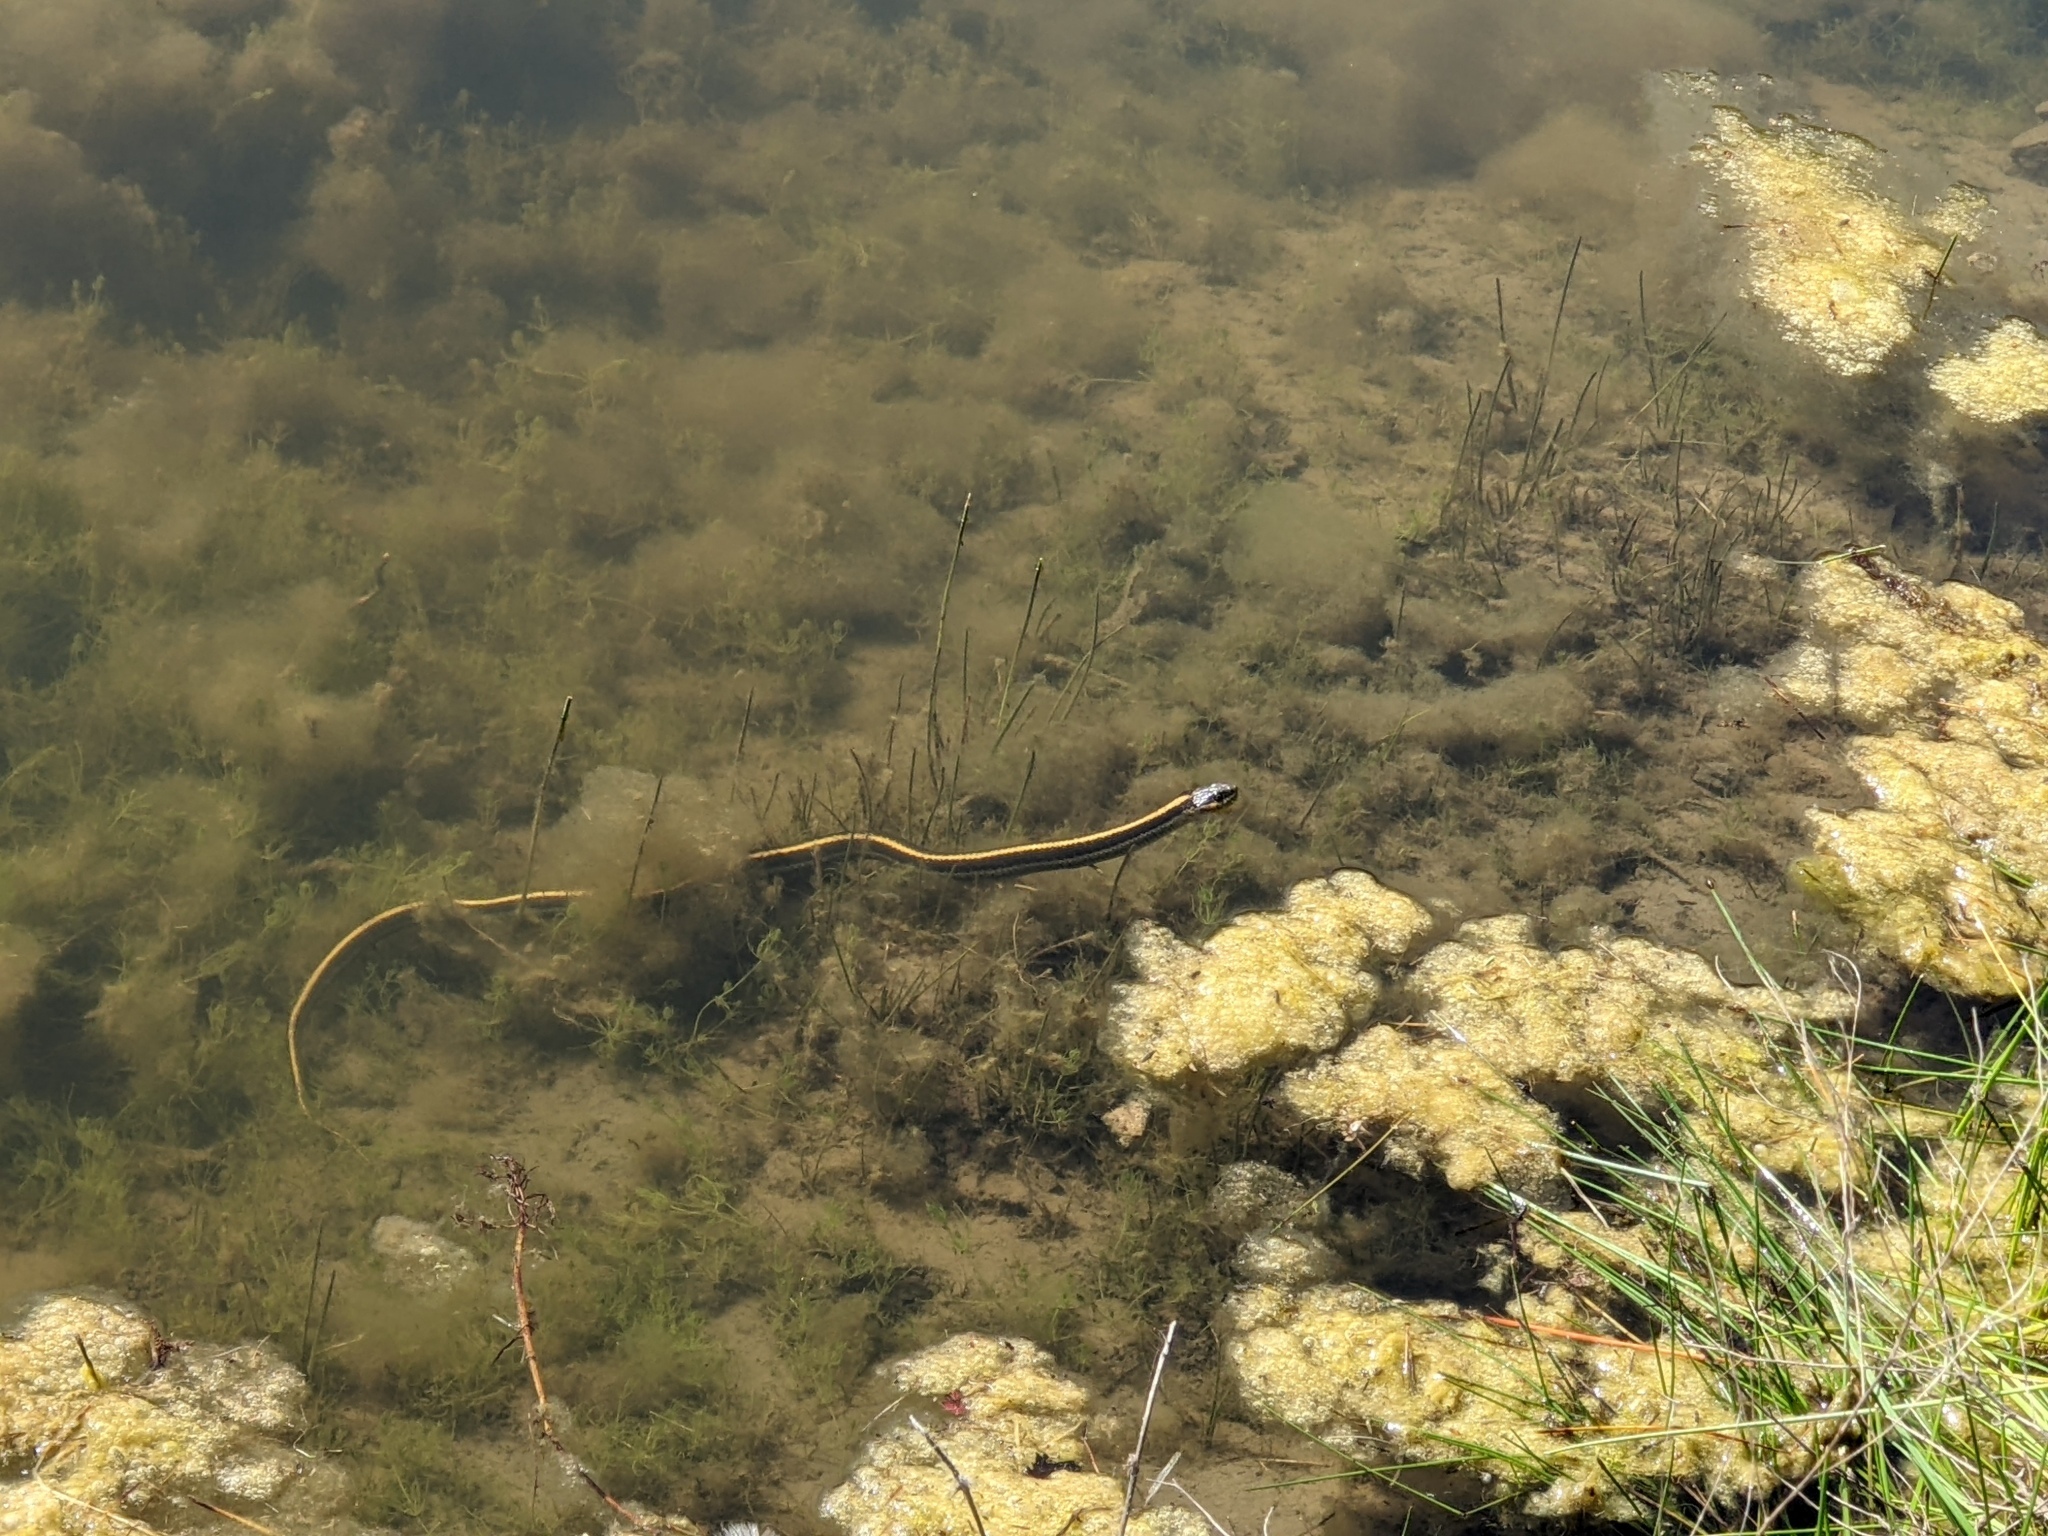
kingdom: Animalia
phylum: Chordata
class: Squamata
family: Colubridae
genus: Thamnophis
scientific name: Thamnophis atratus
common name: Pacific coast aquatic garter snake
